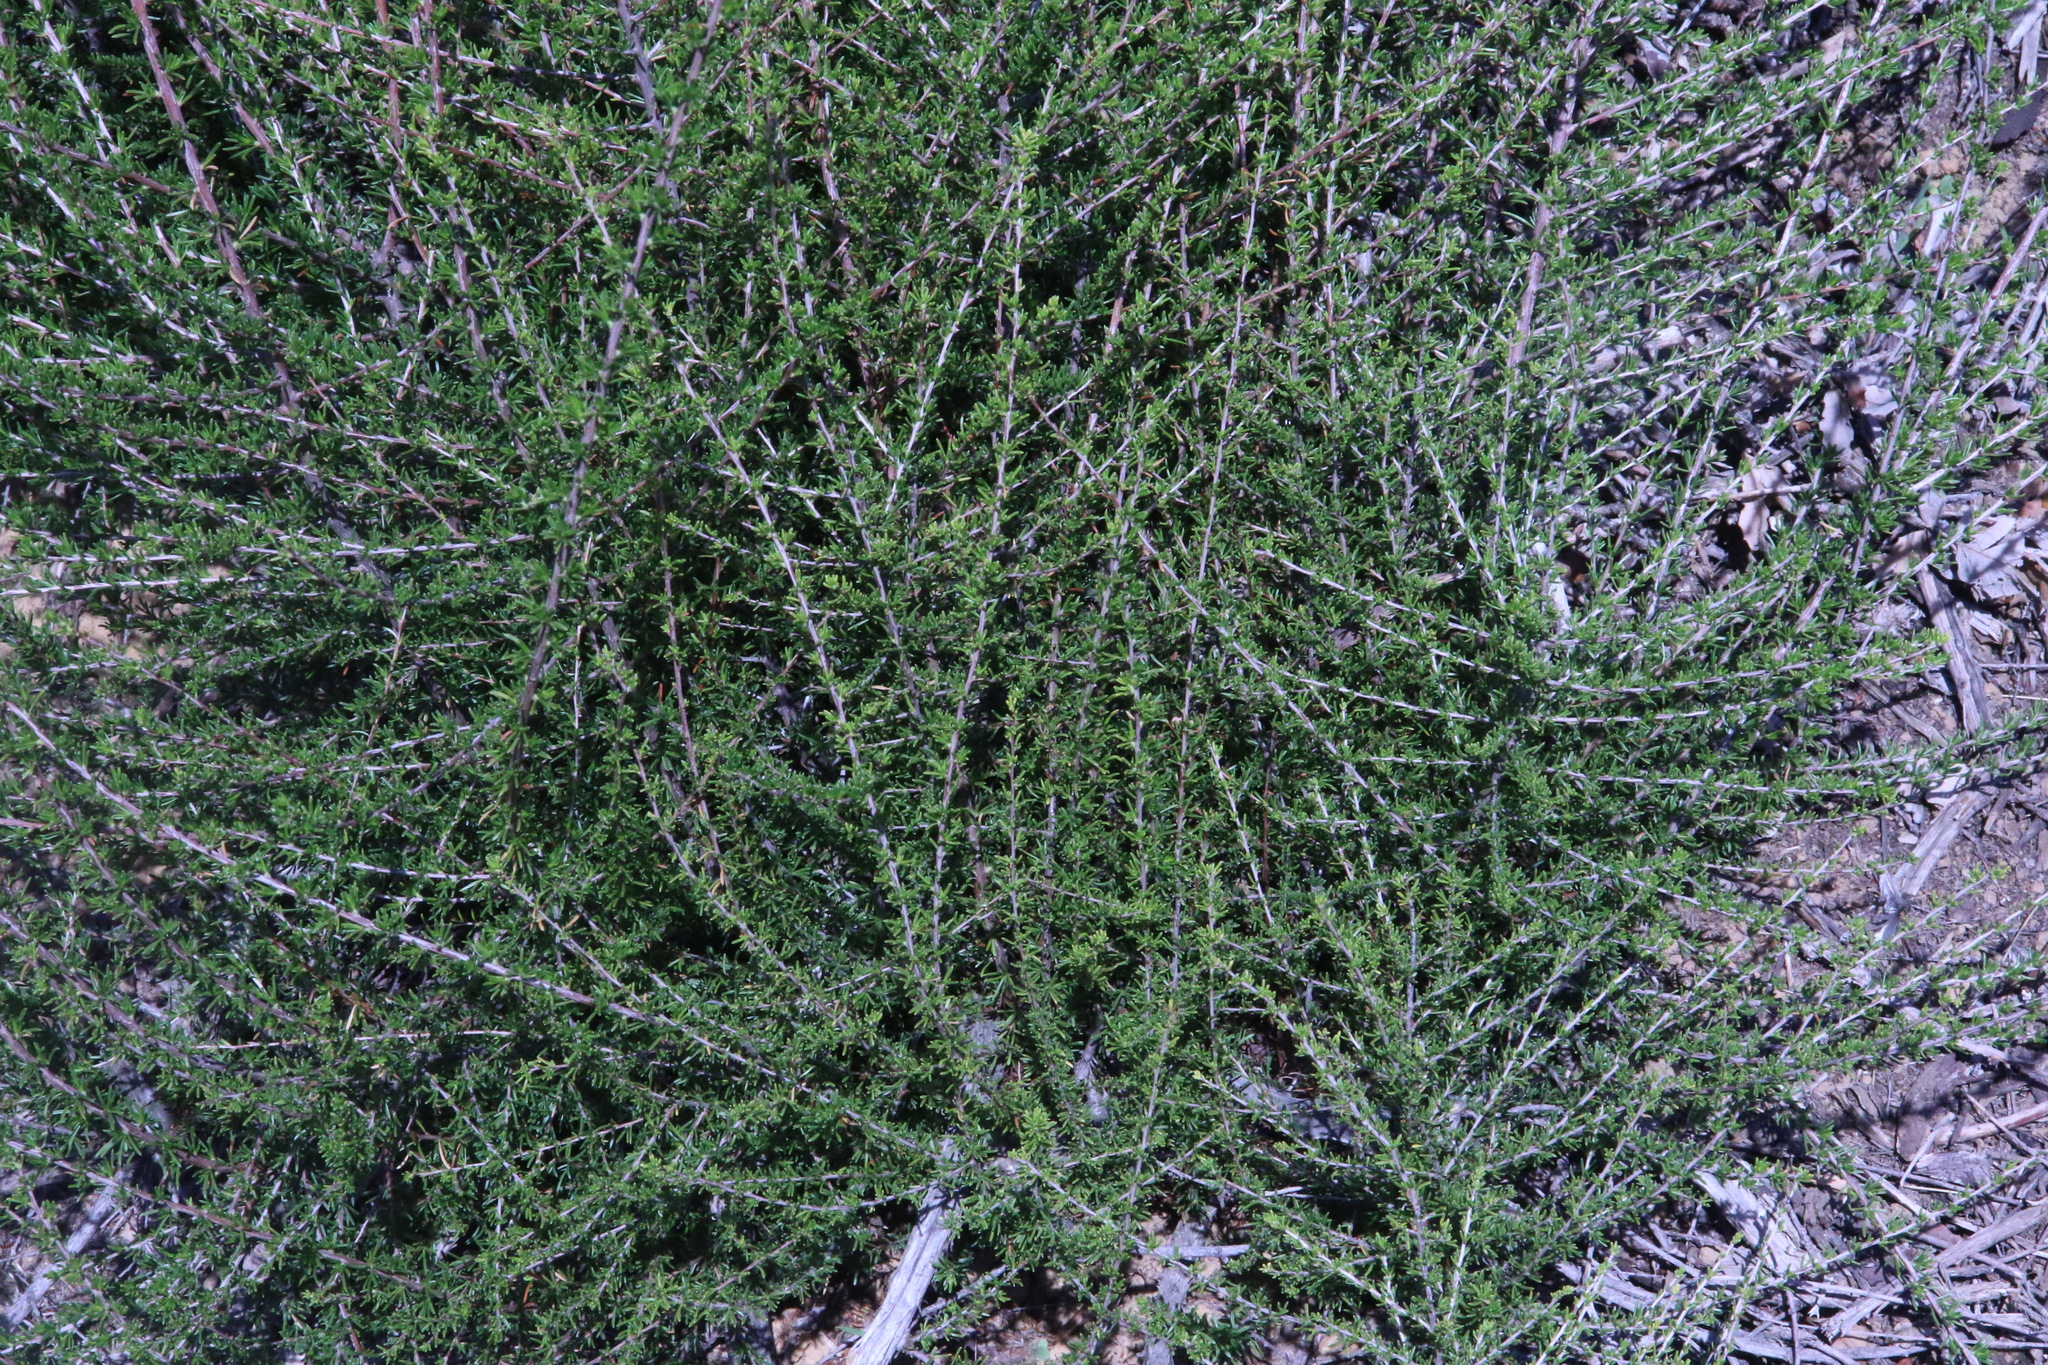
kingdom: Plantae
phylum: Tracheophyta
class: Magnoliopsida
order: Rosales
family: Rosaceae
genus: Adenostoma
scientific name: Adenostoma fasciculatum
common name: Chamise
